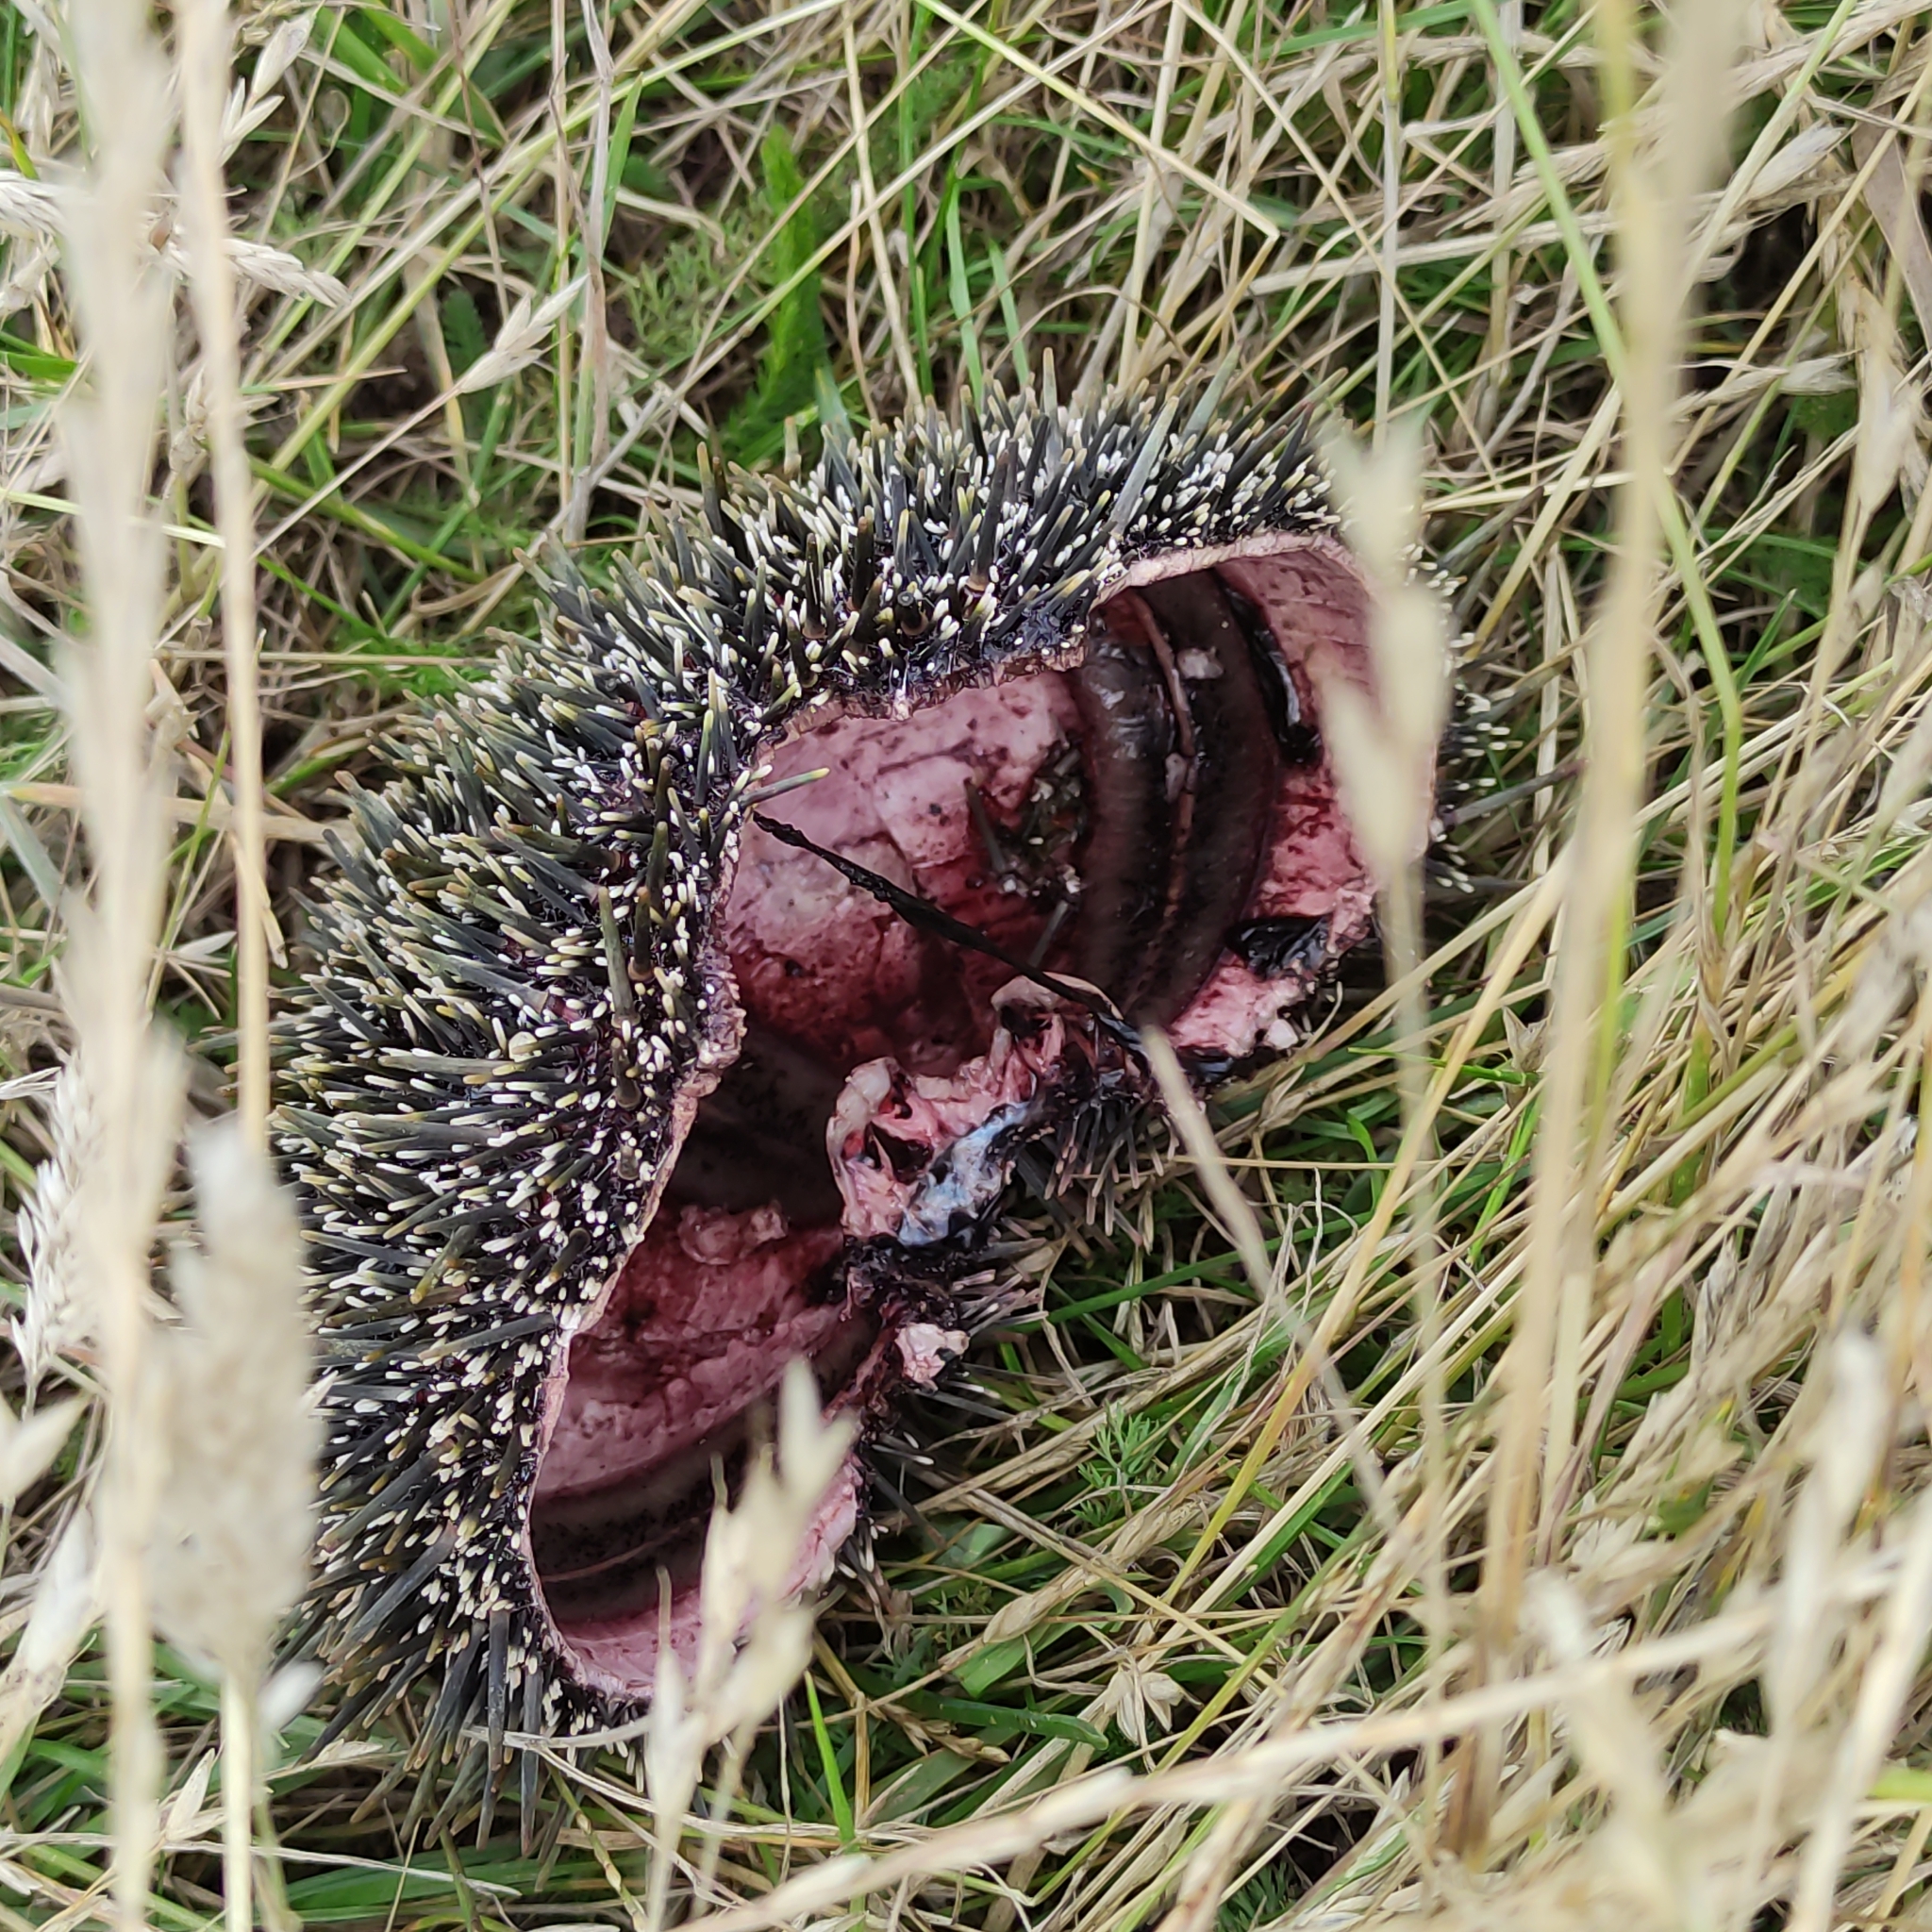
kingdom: Animalia
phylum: Echinodermata
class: Echinoidea
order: Camarodonta
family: Echinometridae
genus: Evechinus
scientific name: Evechinus chloroticus
